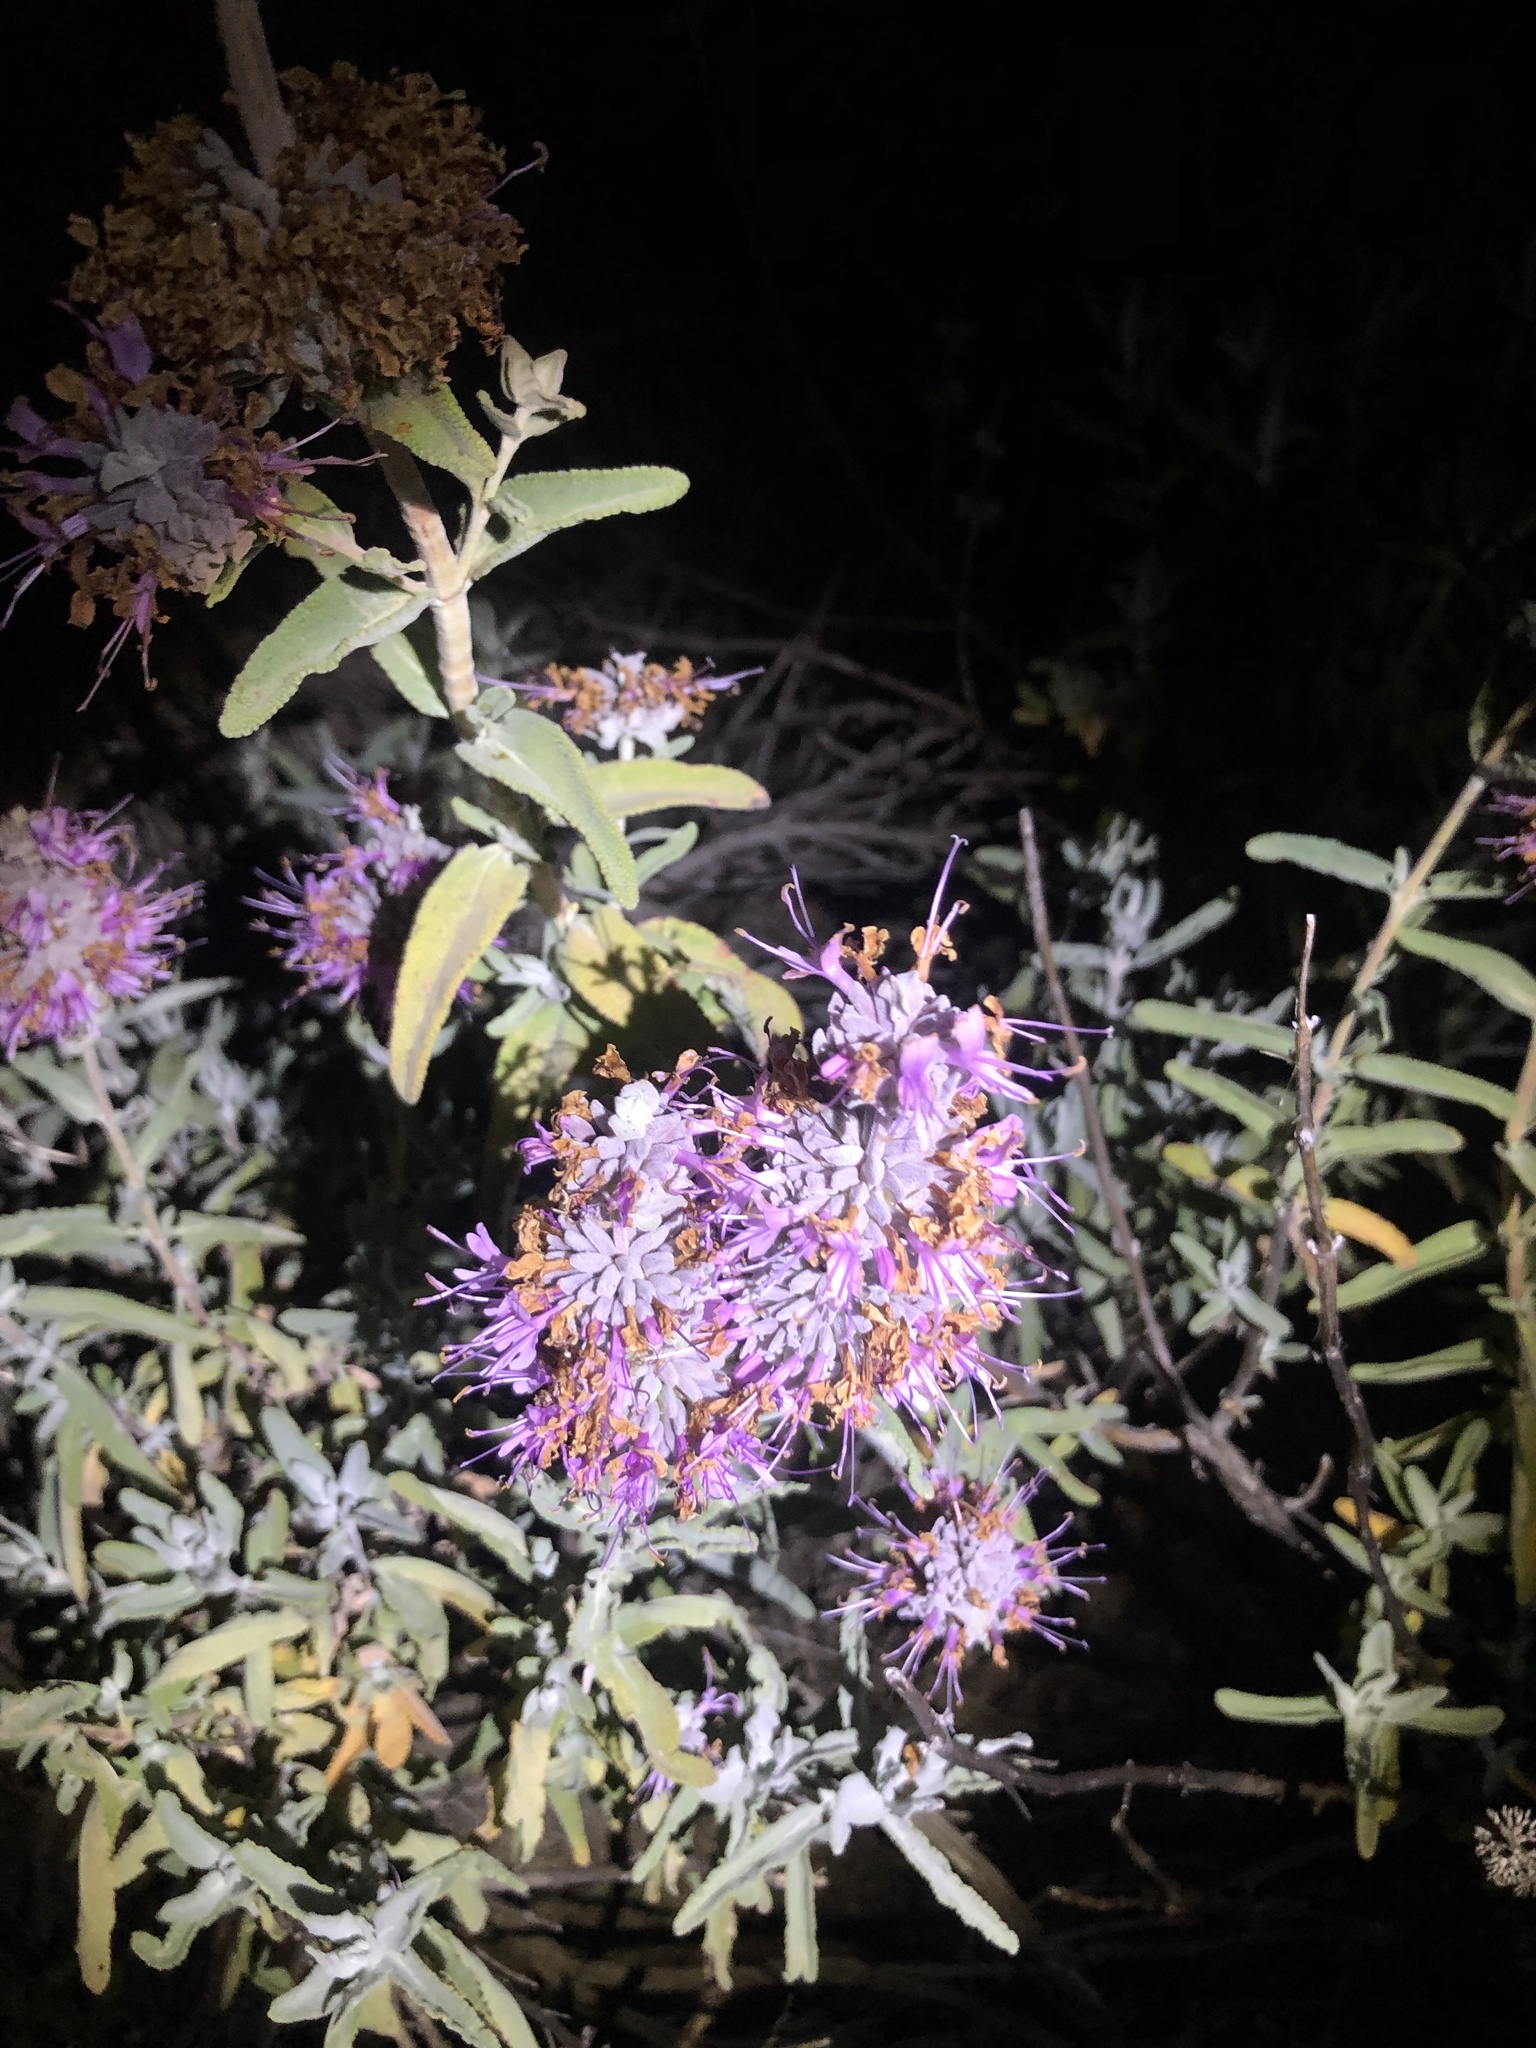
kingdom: Plantae
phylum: Tracheophyta
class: Magnoliopsida
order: Lamiales
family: Lamiaceae
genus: Salvia
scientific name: Salvia leucophylla
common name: Purple sage
